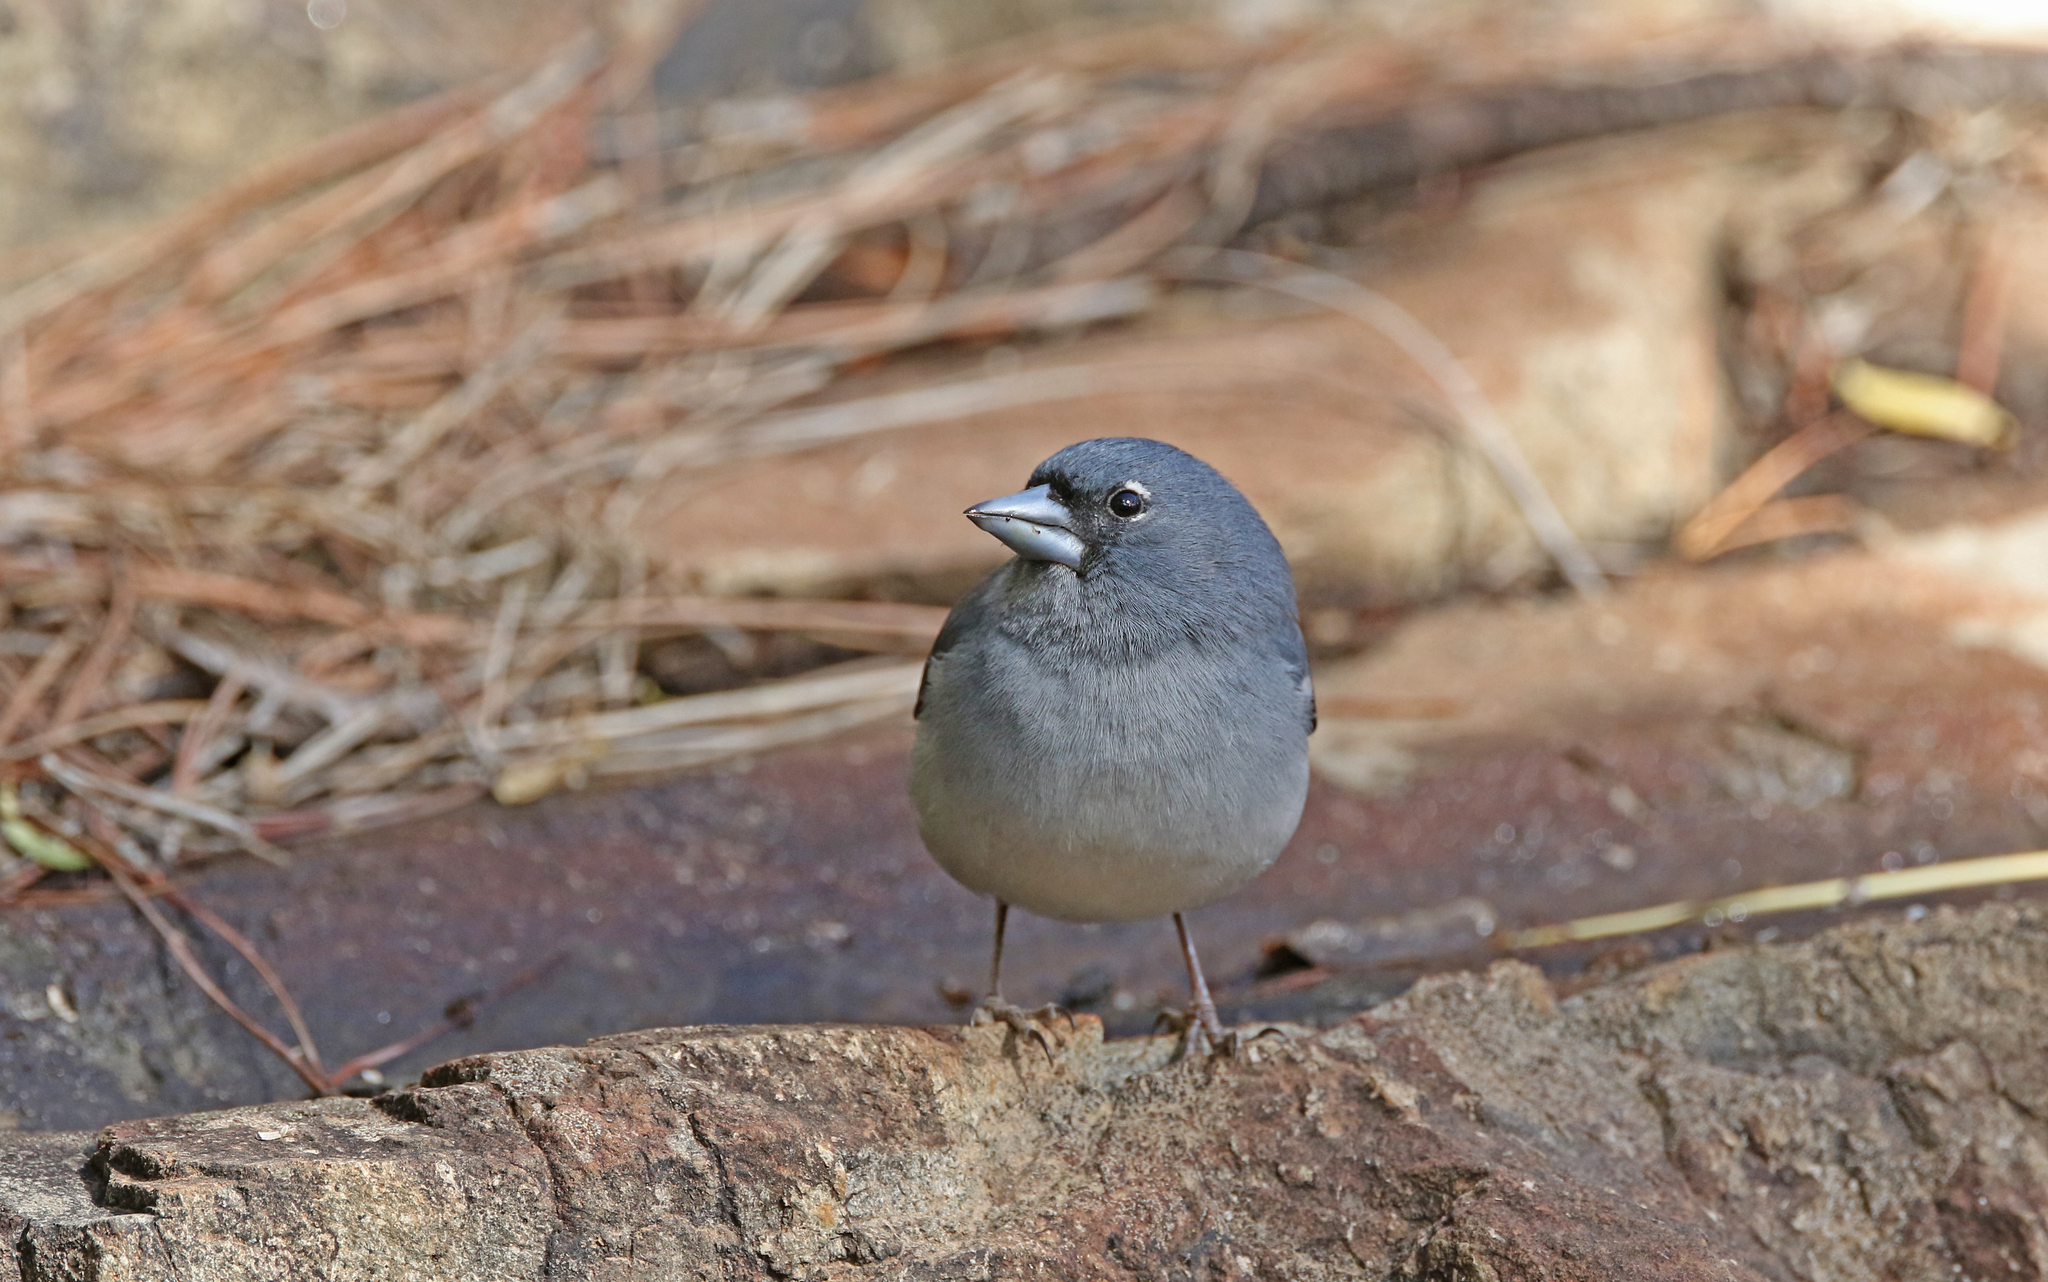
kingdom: Animalia
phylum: Chordata
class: Aves
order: Passeriformes
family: Fringillidae
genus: Fringilla
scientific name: Fringilla polatzeki
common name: Gran canaria blue chaffinch
